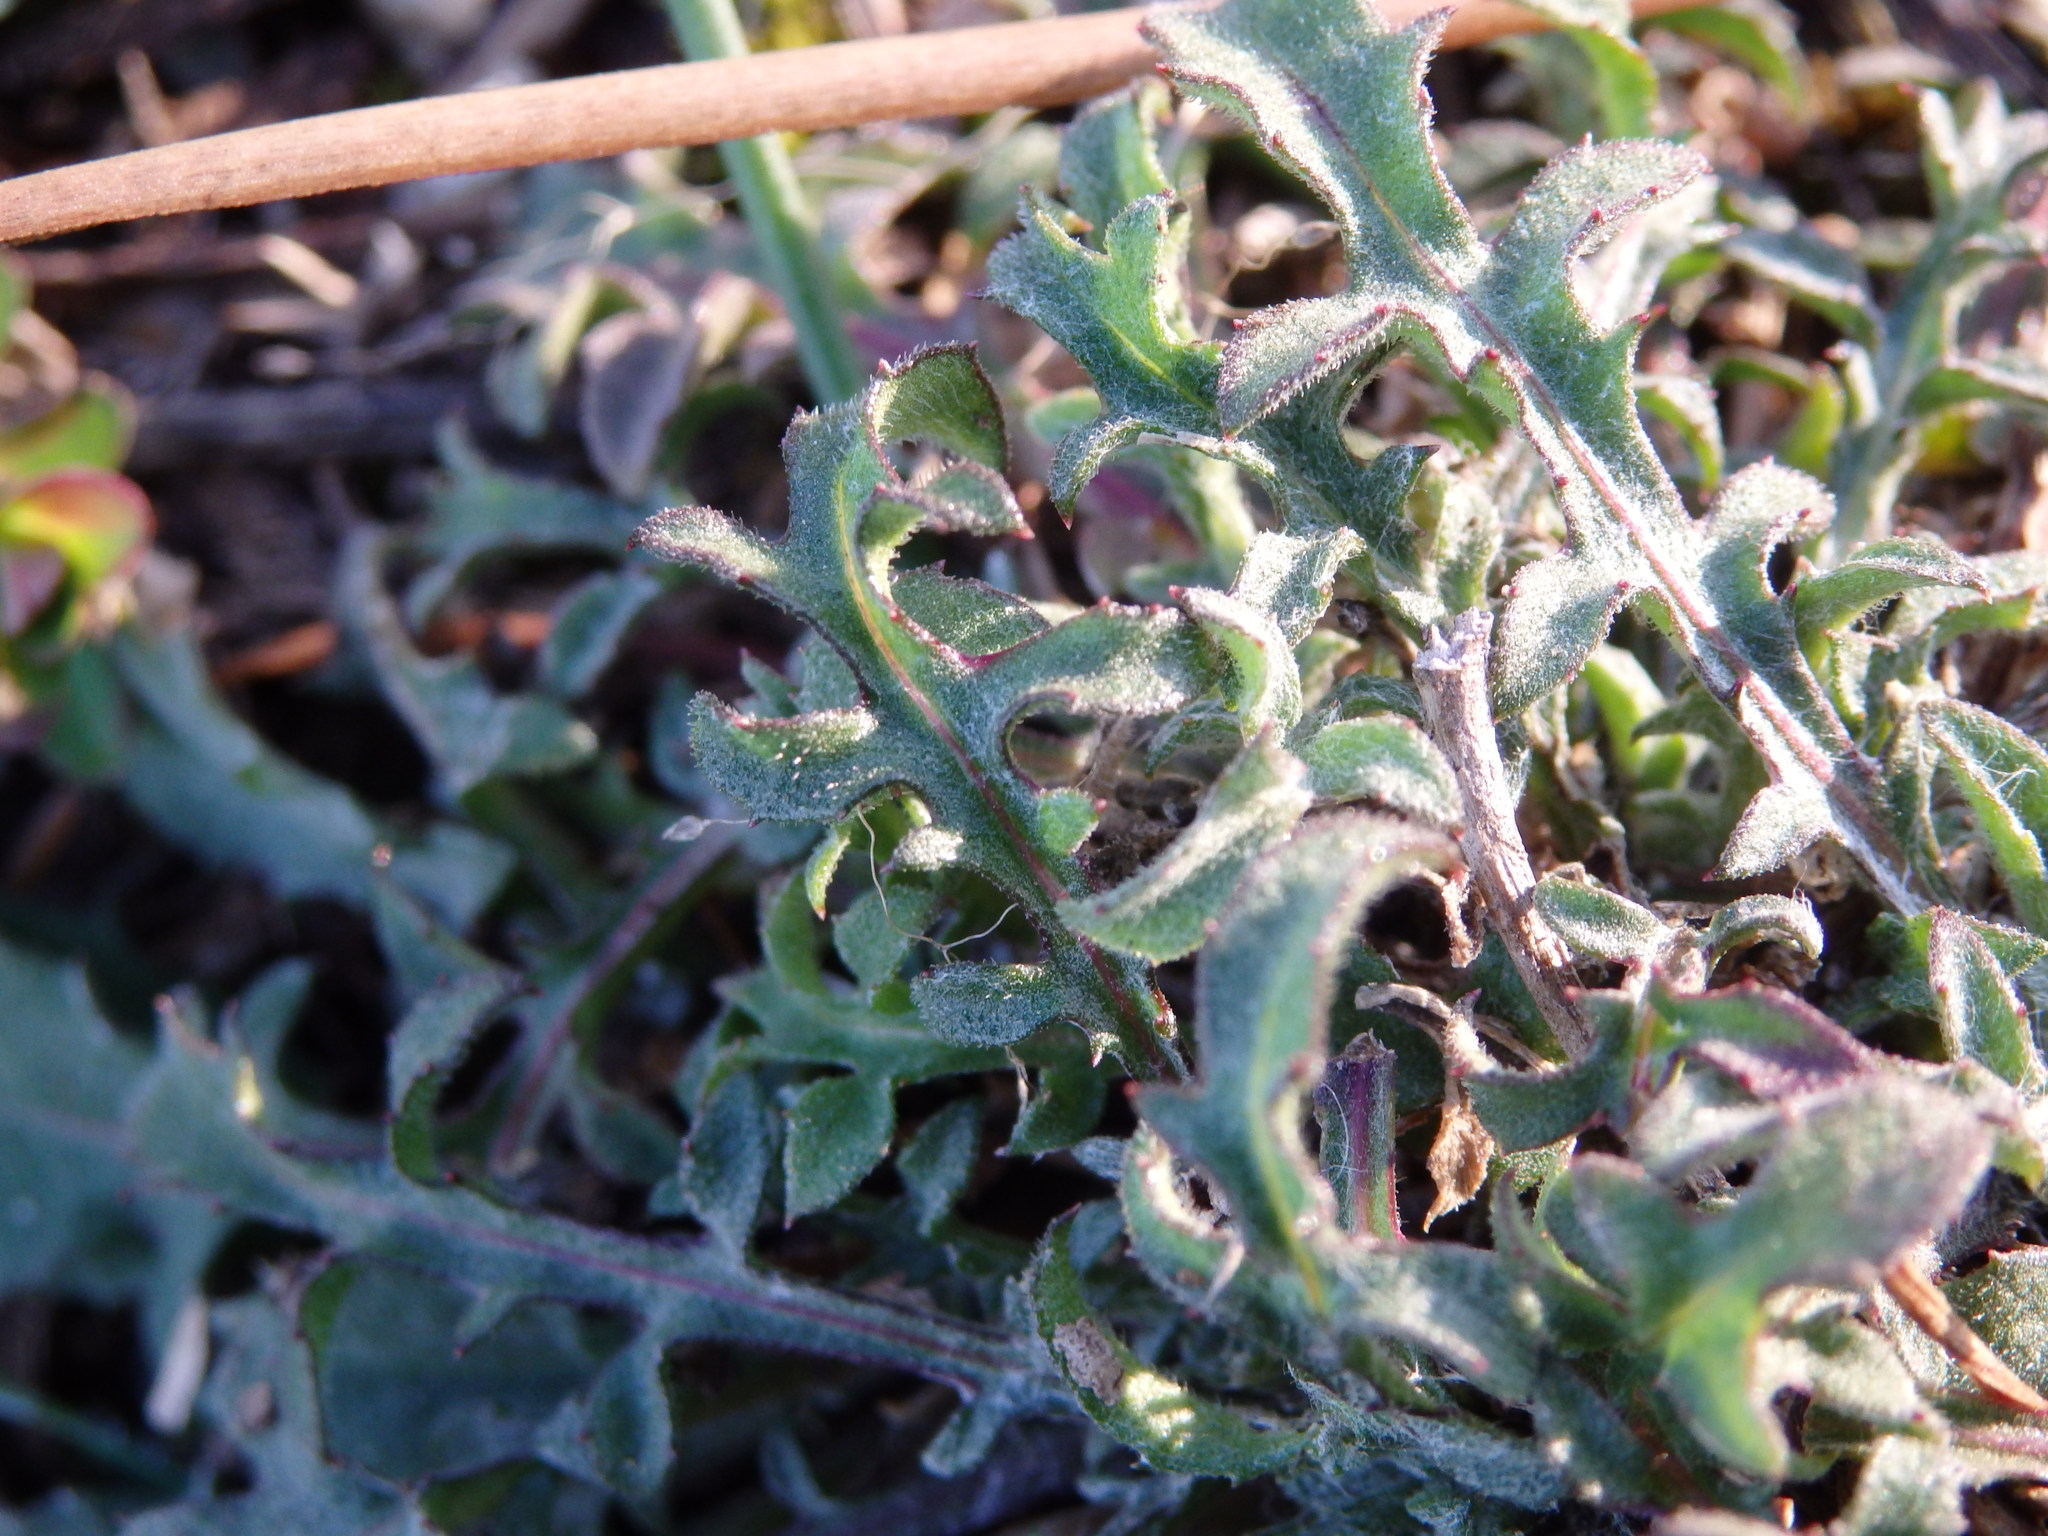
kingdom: Plantae
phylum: Tracheophyta
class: Magnoliopsida
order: Asterales
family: Asteraceae
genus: Centaurea
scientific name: Centaurea limbata
